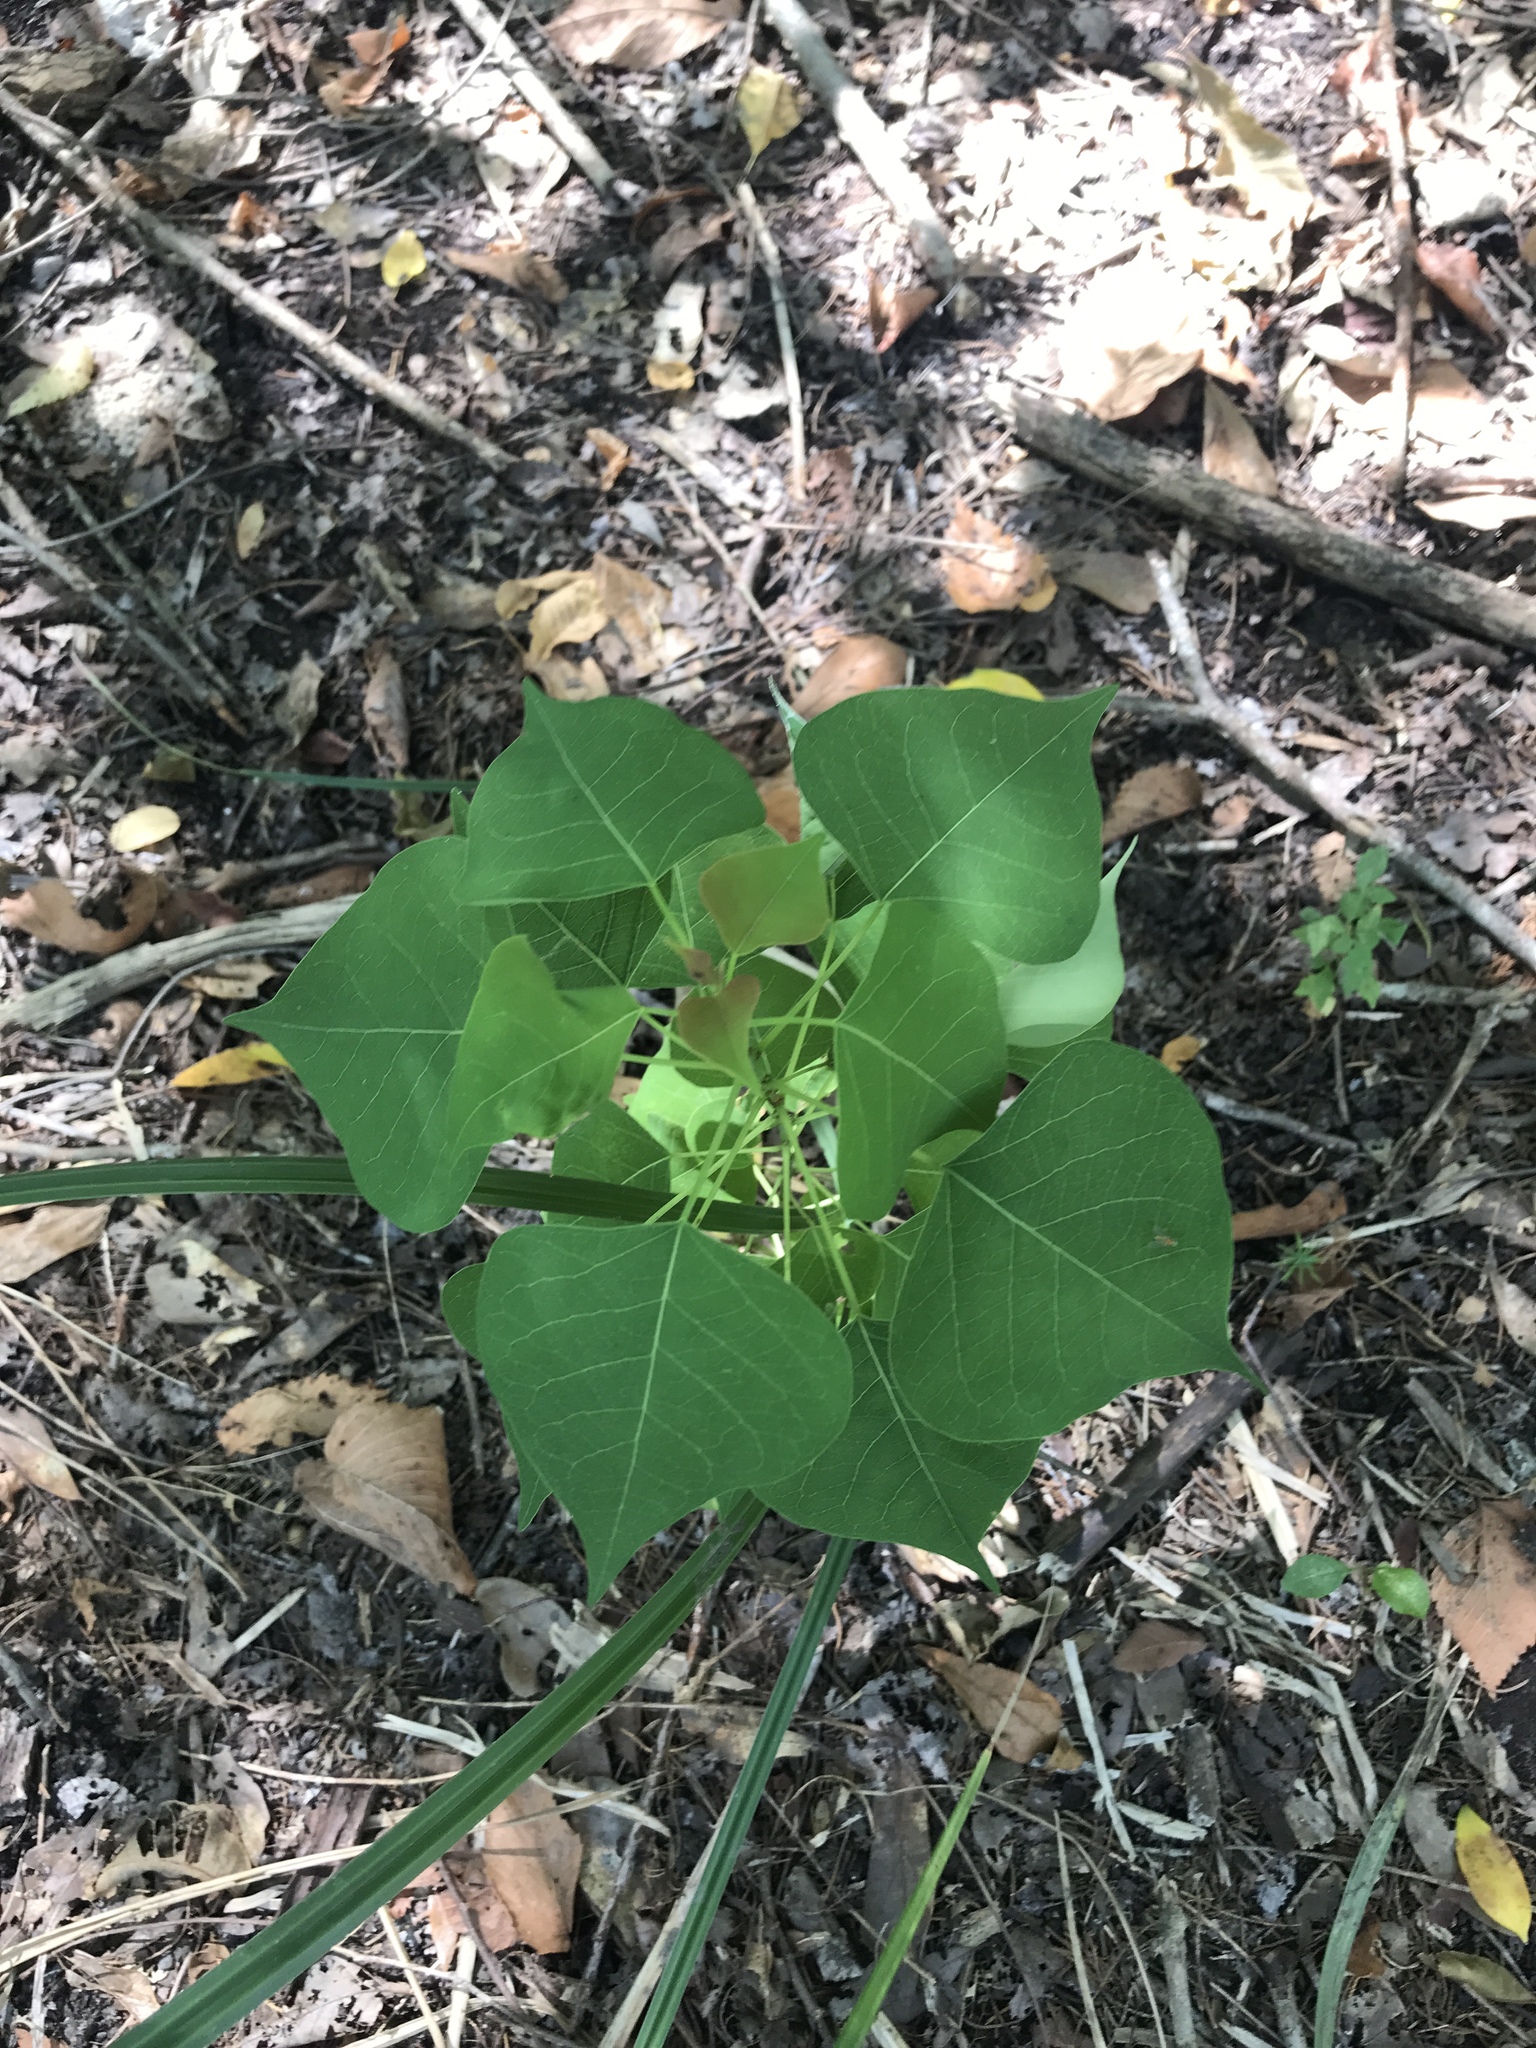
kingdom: Plantae
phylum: Tracheophyta
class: Magnoliopsida
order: Malpighiales
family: Euphorbiaceae
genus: Triadica
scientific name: Triadica sebifera
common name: Chinese tallow
